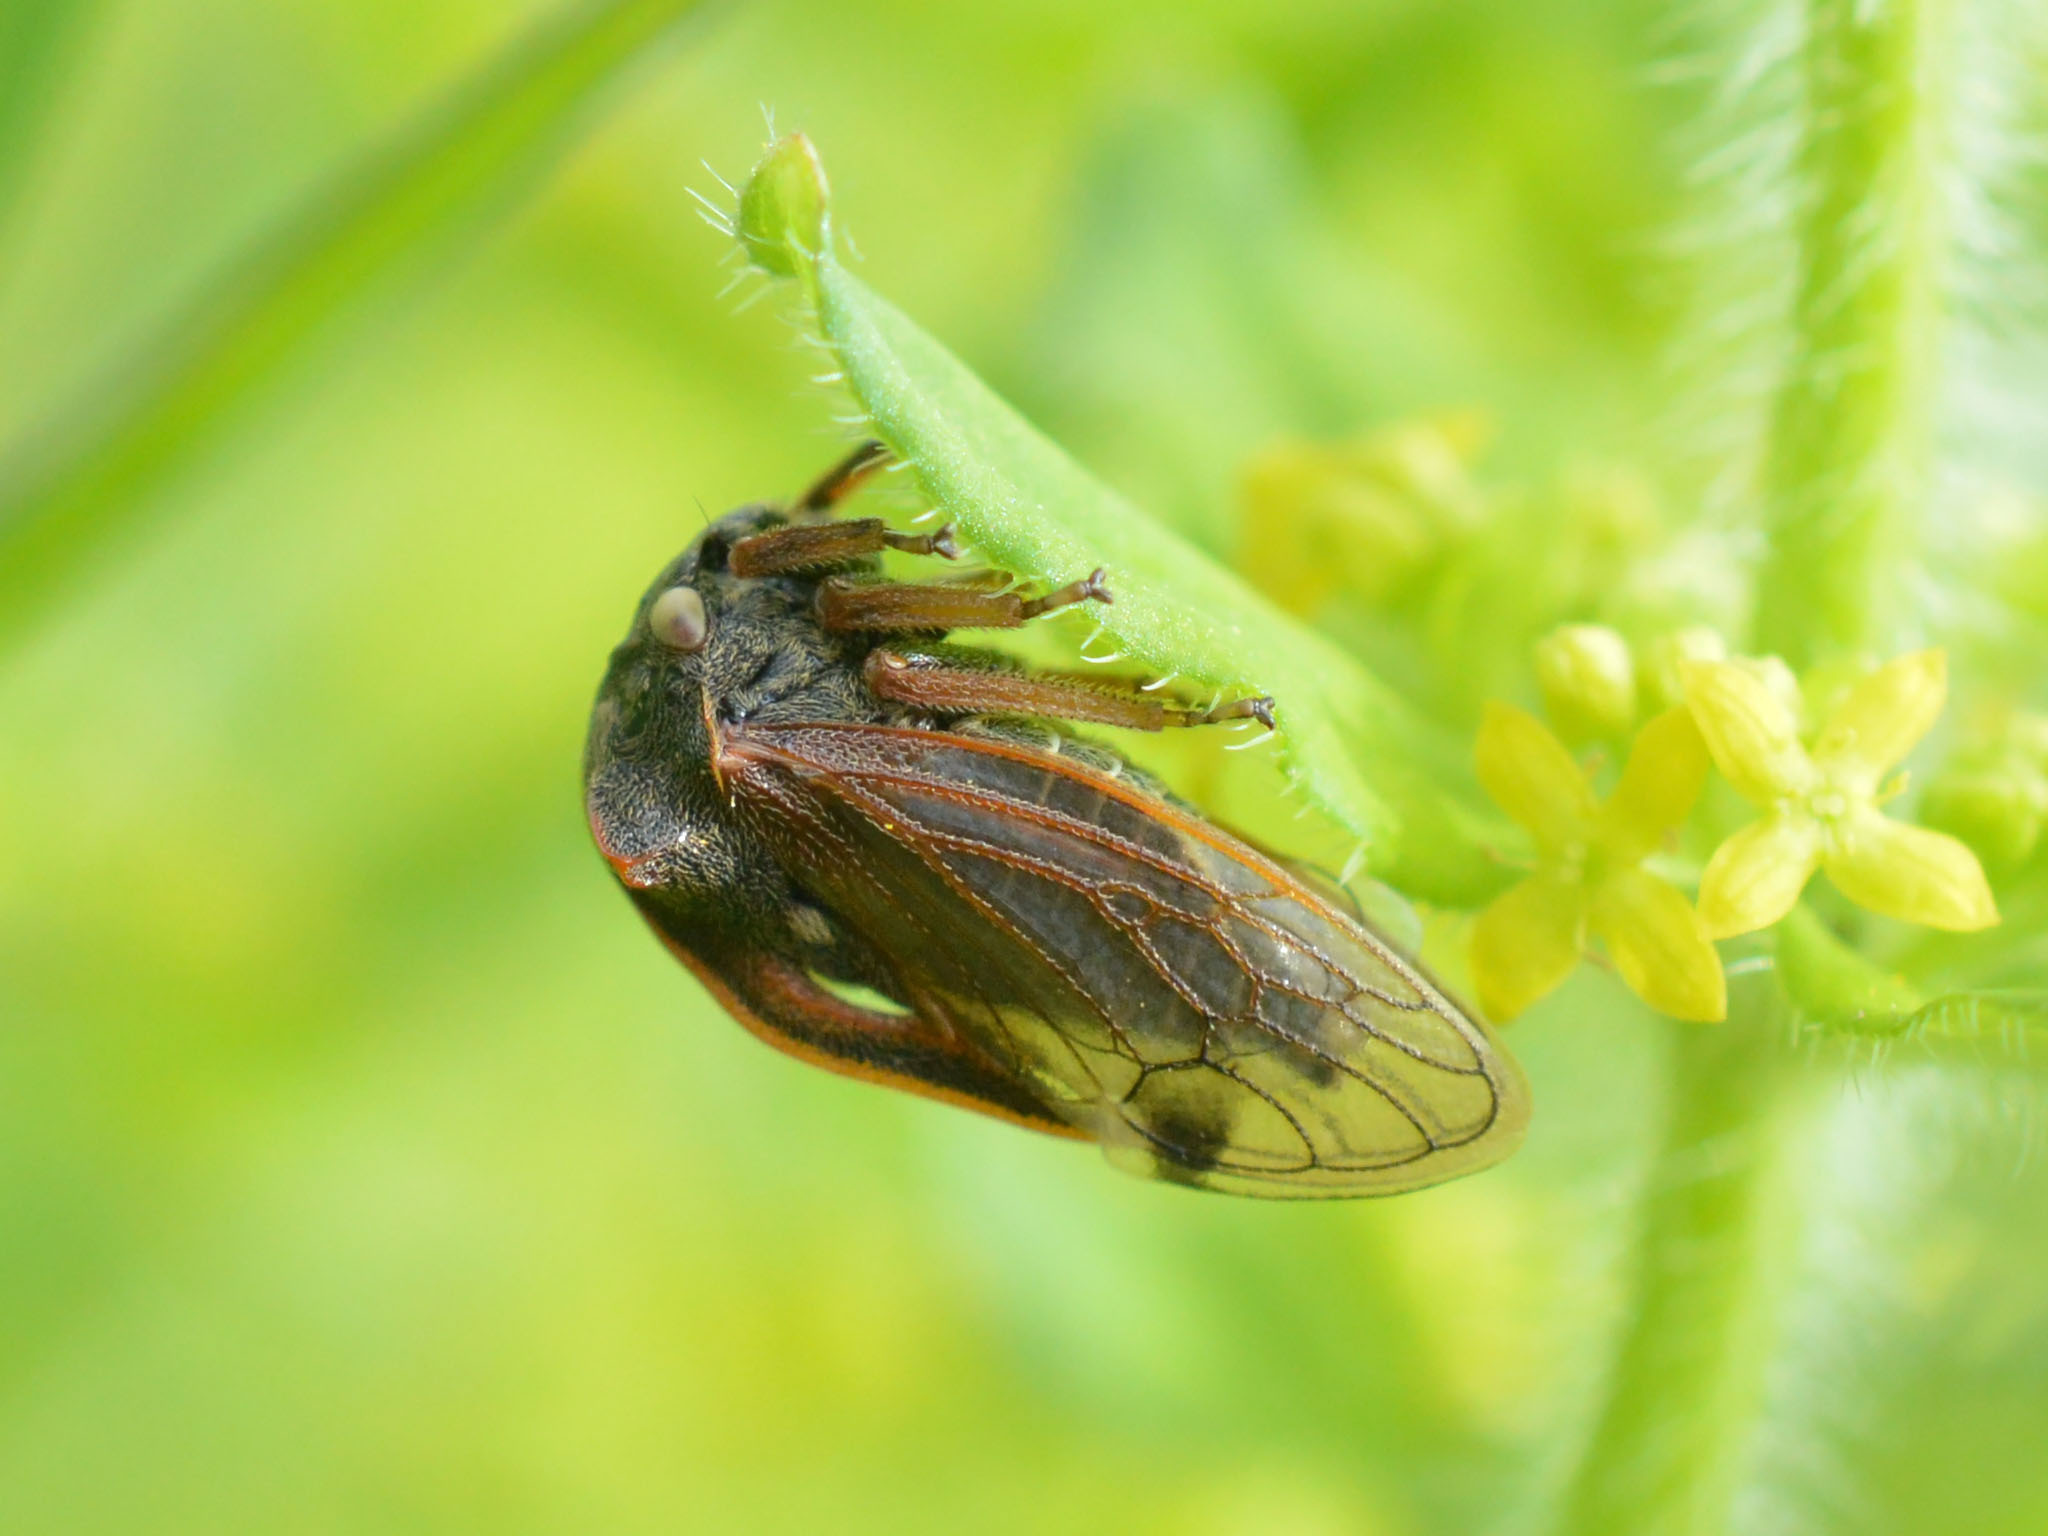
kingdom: Animalia
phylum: Arthropoda
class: Insecta
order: Hemiptera
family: Membracidae
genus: Centrotus
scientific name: Centrotus cornuta
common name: Treehopper
